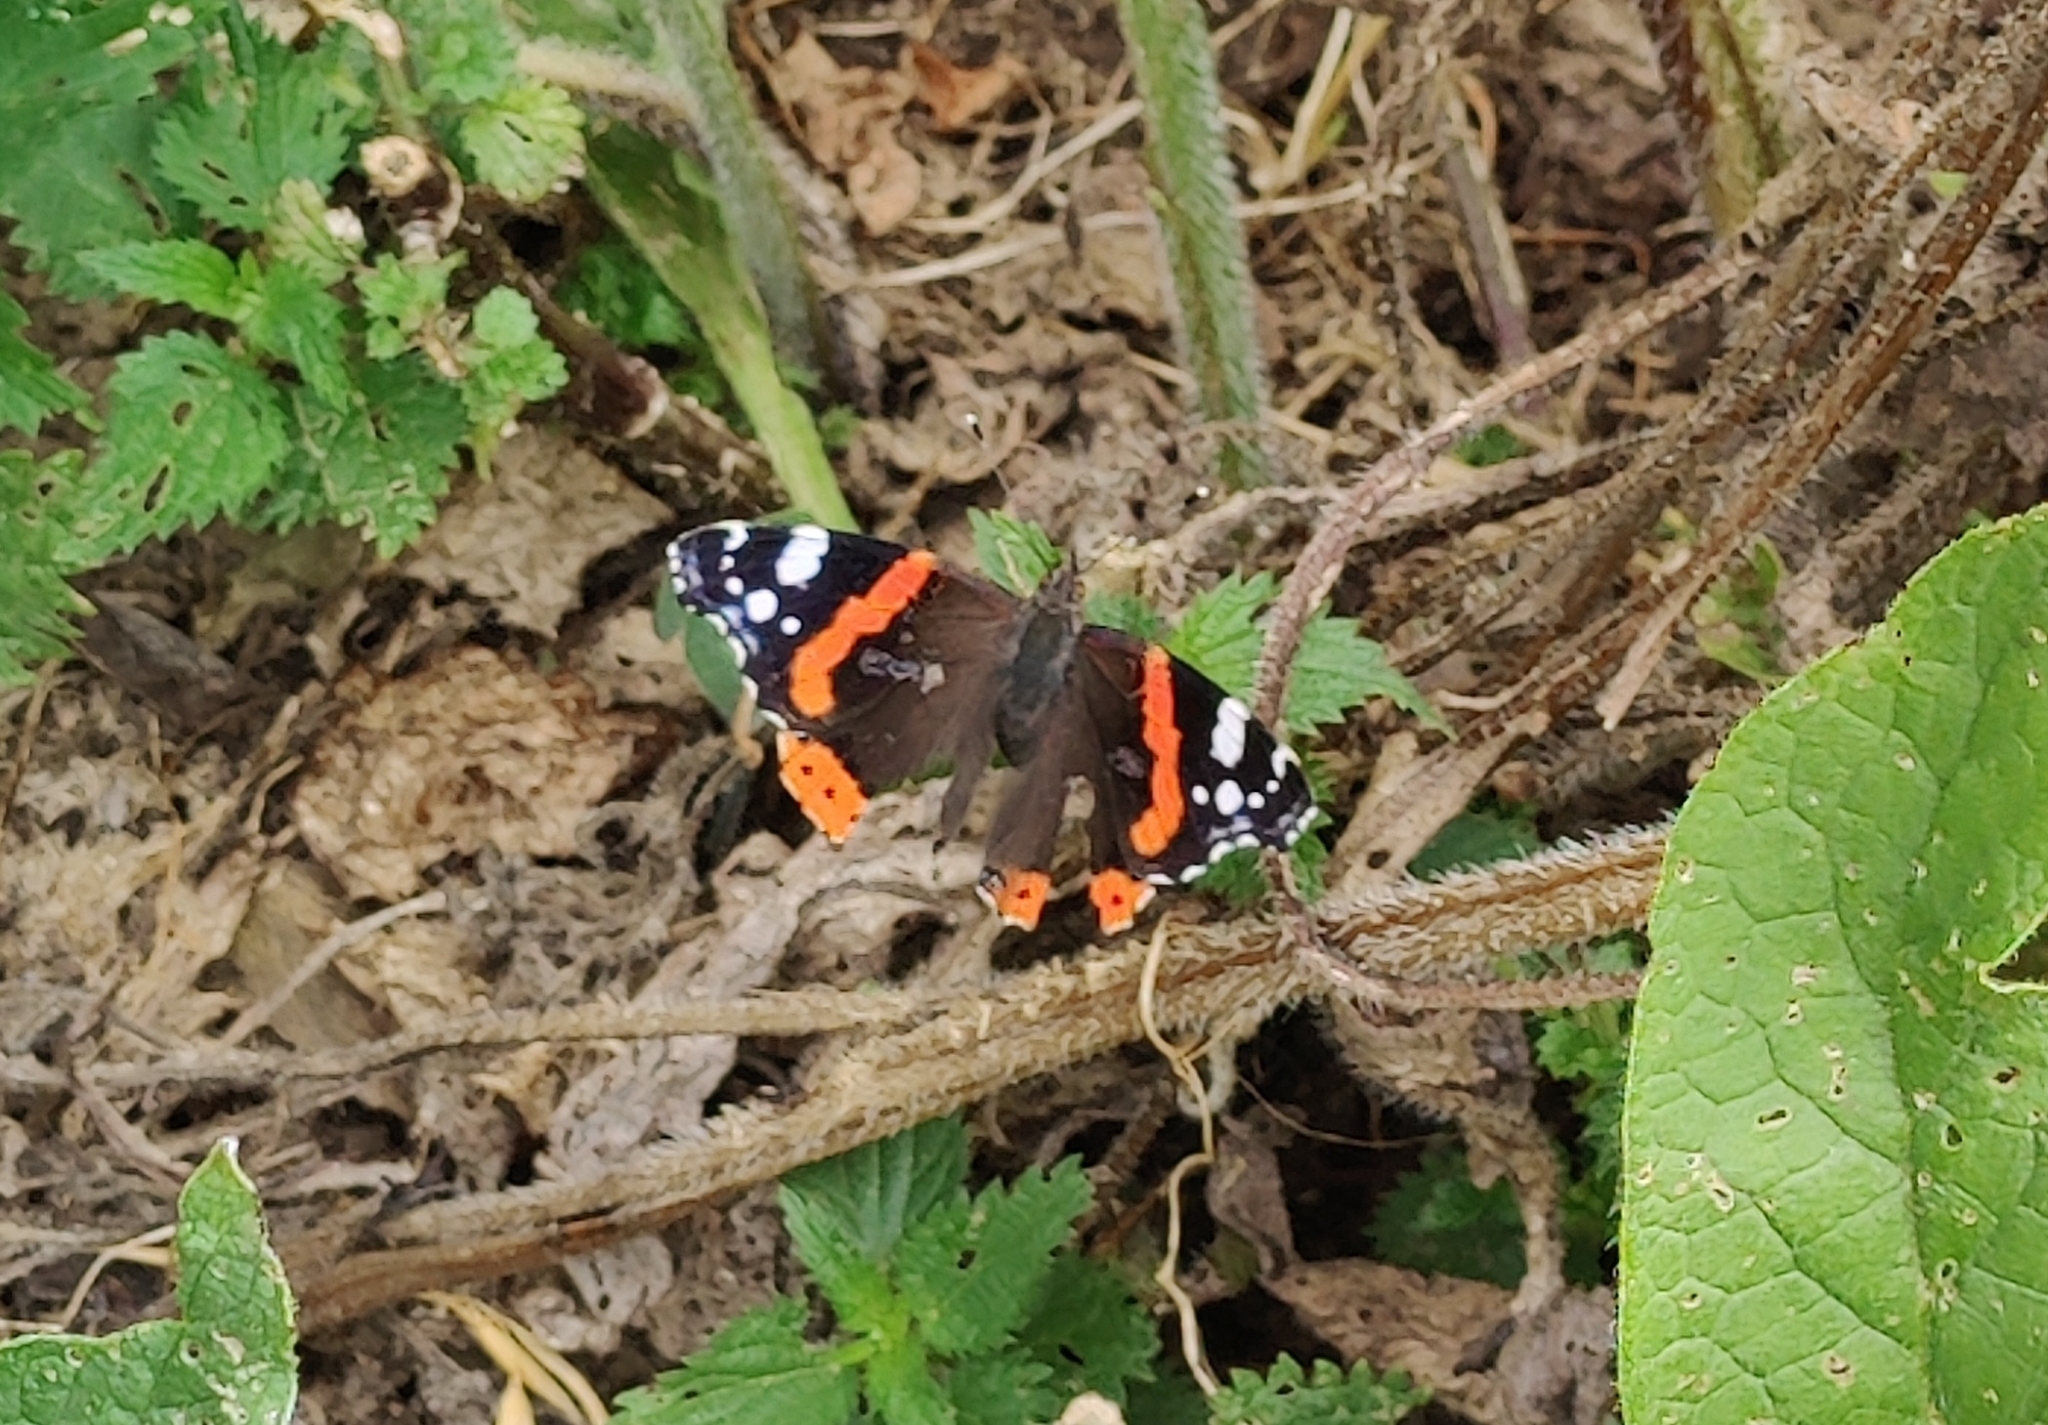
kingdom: Animalia
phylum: Arthropoda
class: Insecta
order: Lepidoptera
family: Nymphalidae
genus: Vanessa
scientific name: Vanessa atalanta
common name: Red admiral
